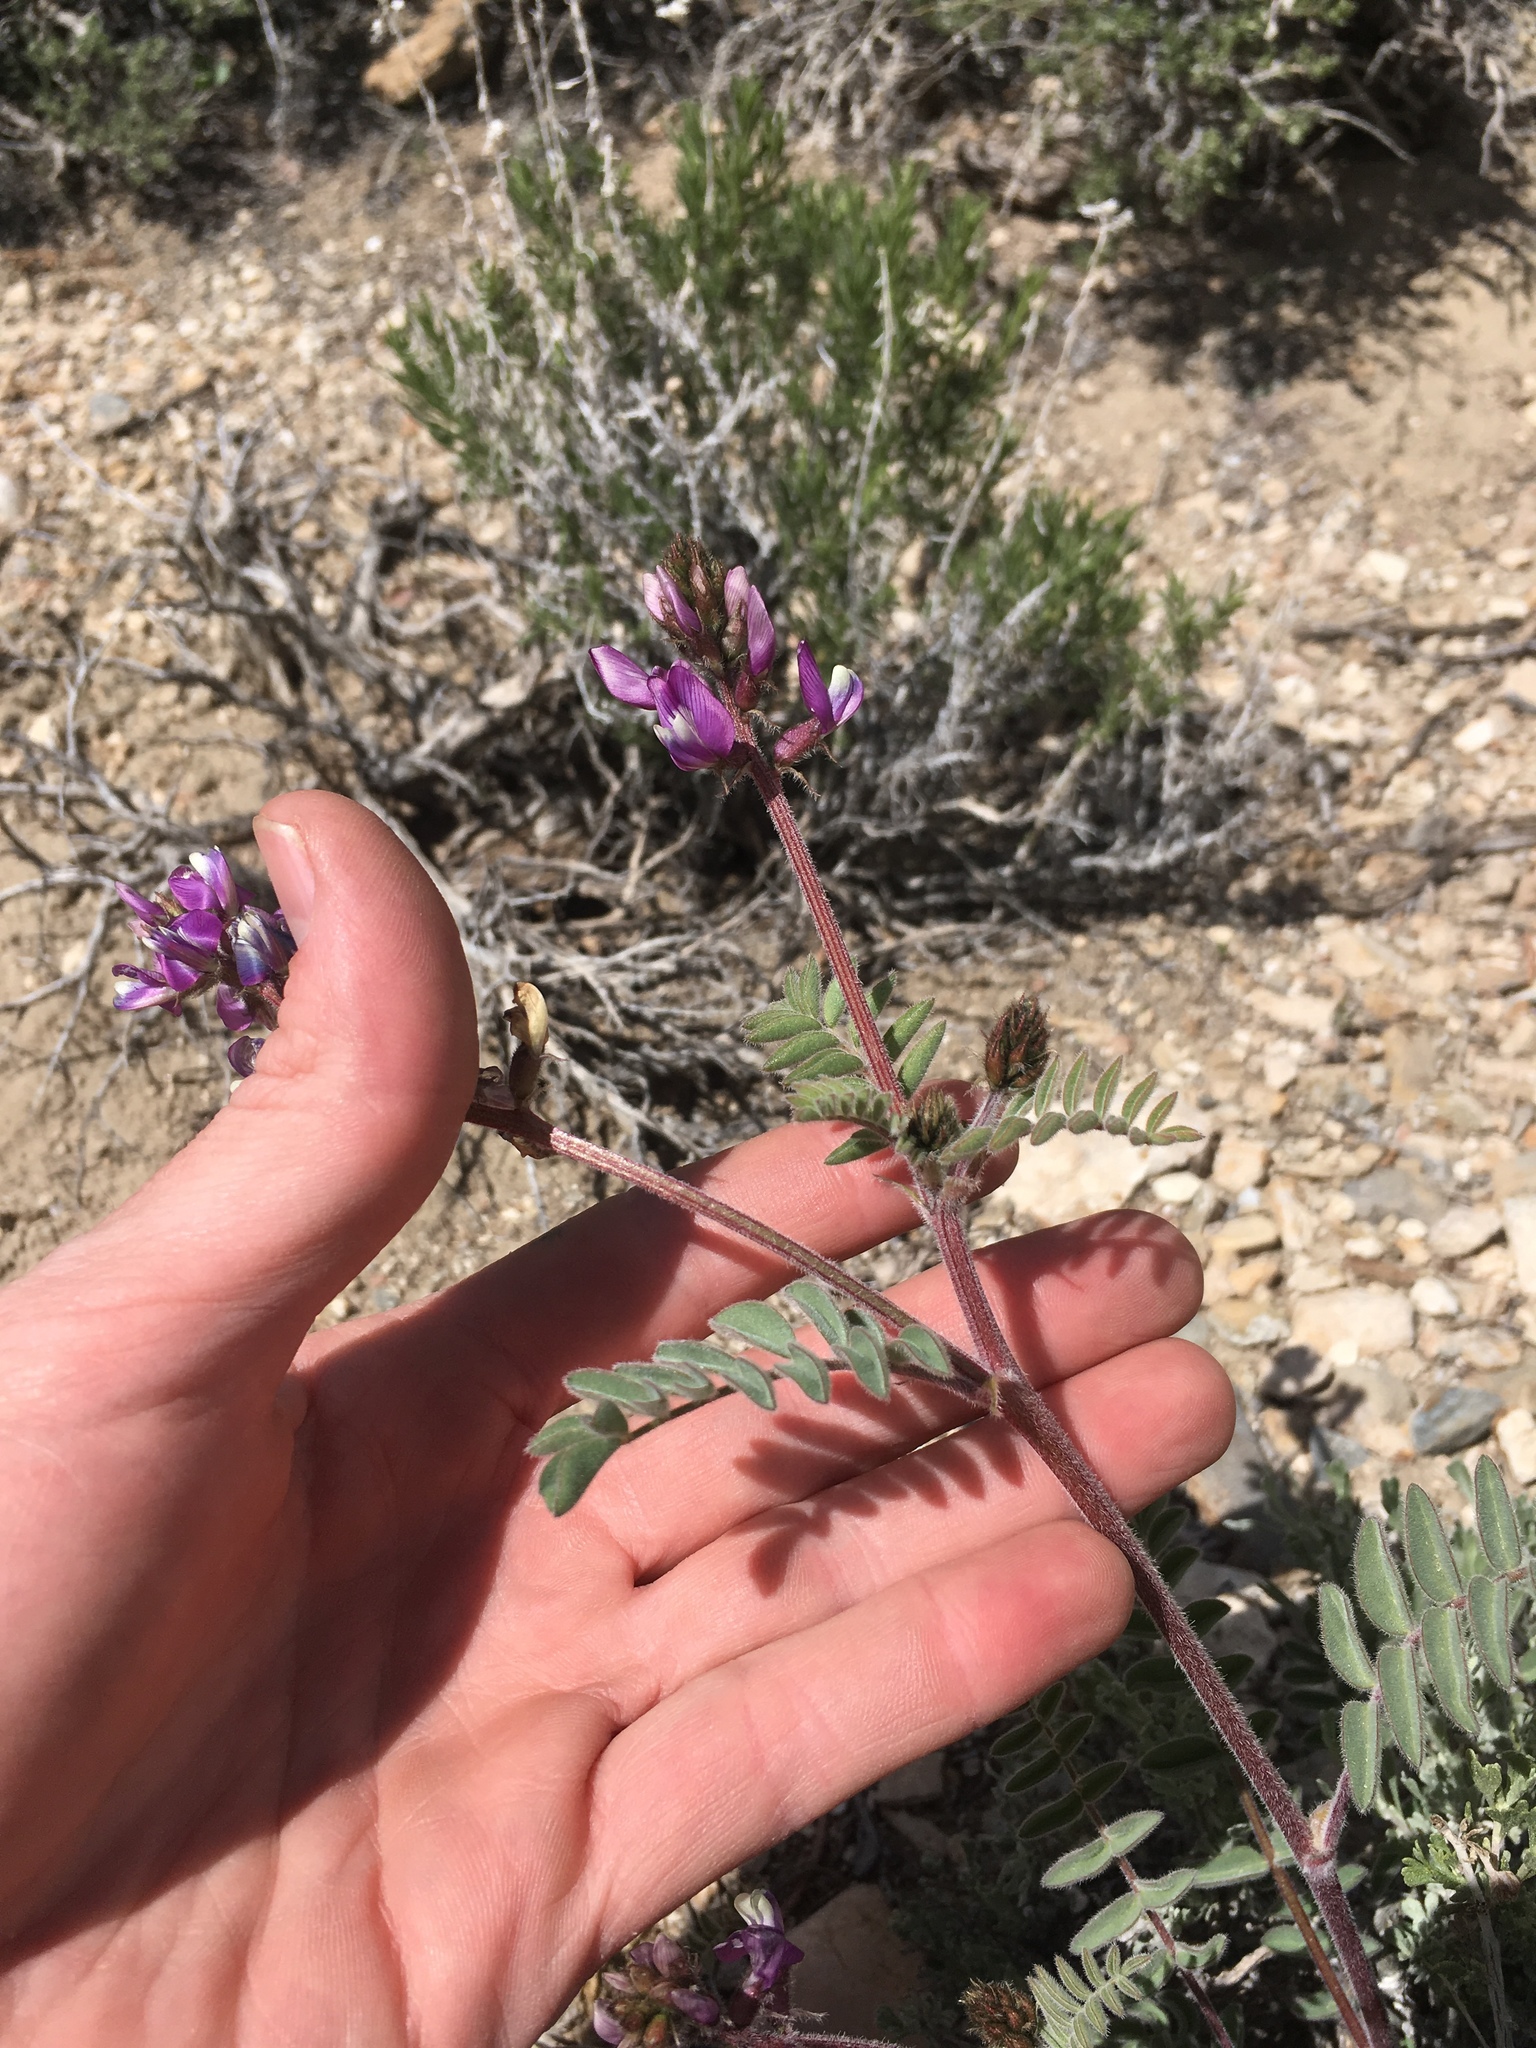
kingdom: Plantae
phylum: Tracheophyta
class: Magnoliopsida
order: Fabales
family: Fabaceae
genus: Astragalus
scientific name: Astragalus minthorniae
